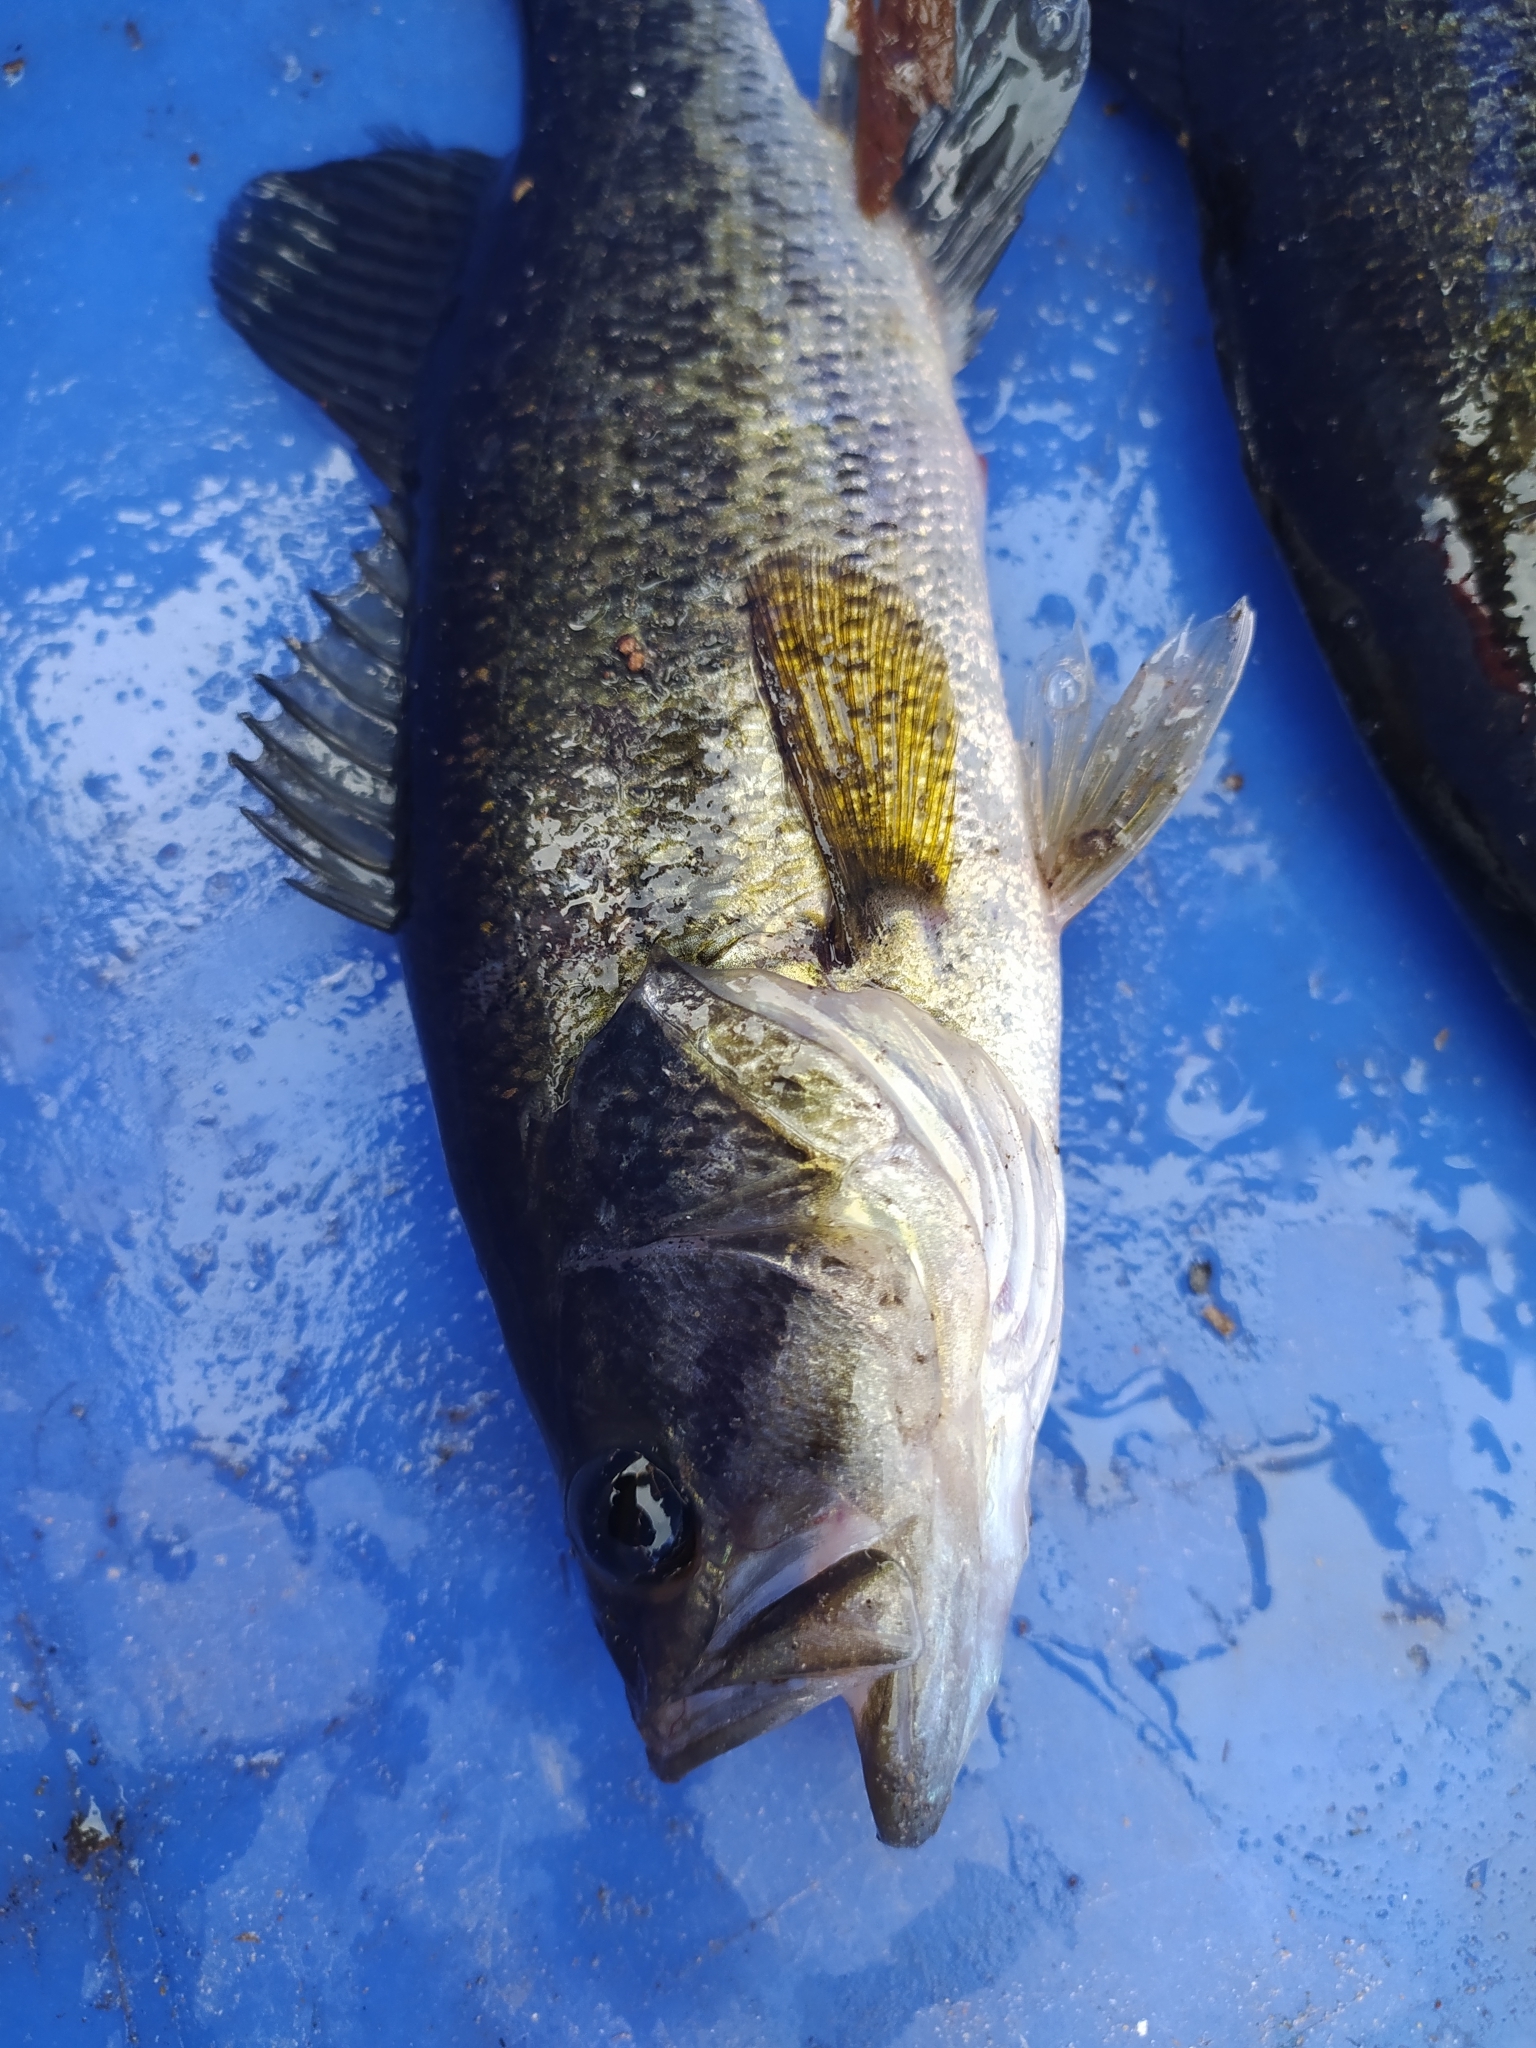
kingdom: Animalia
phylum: Chordata
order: Perciformes
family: Centrarchidae
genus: Micropterus
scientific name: Micropterus
